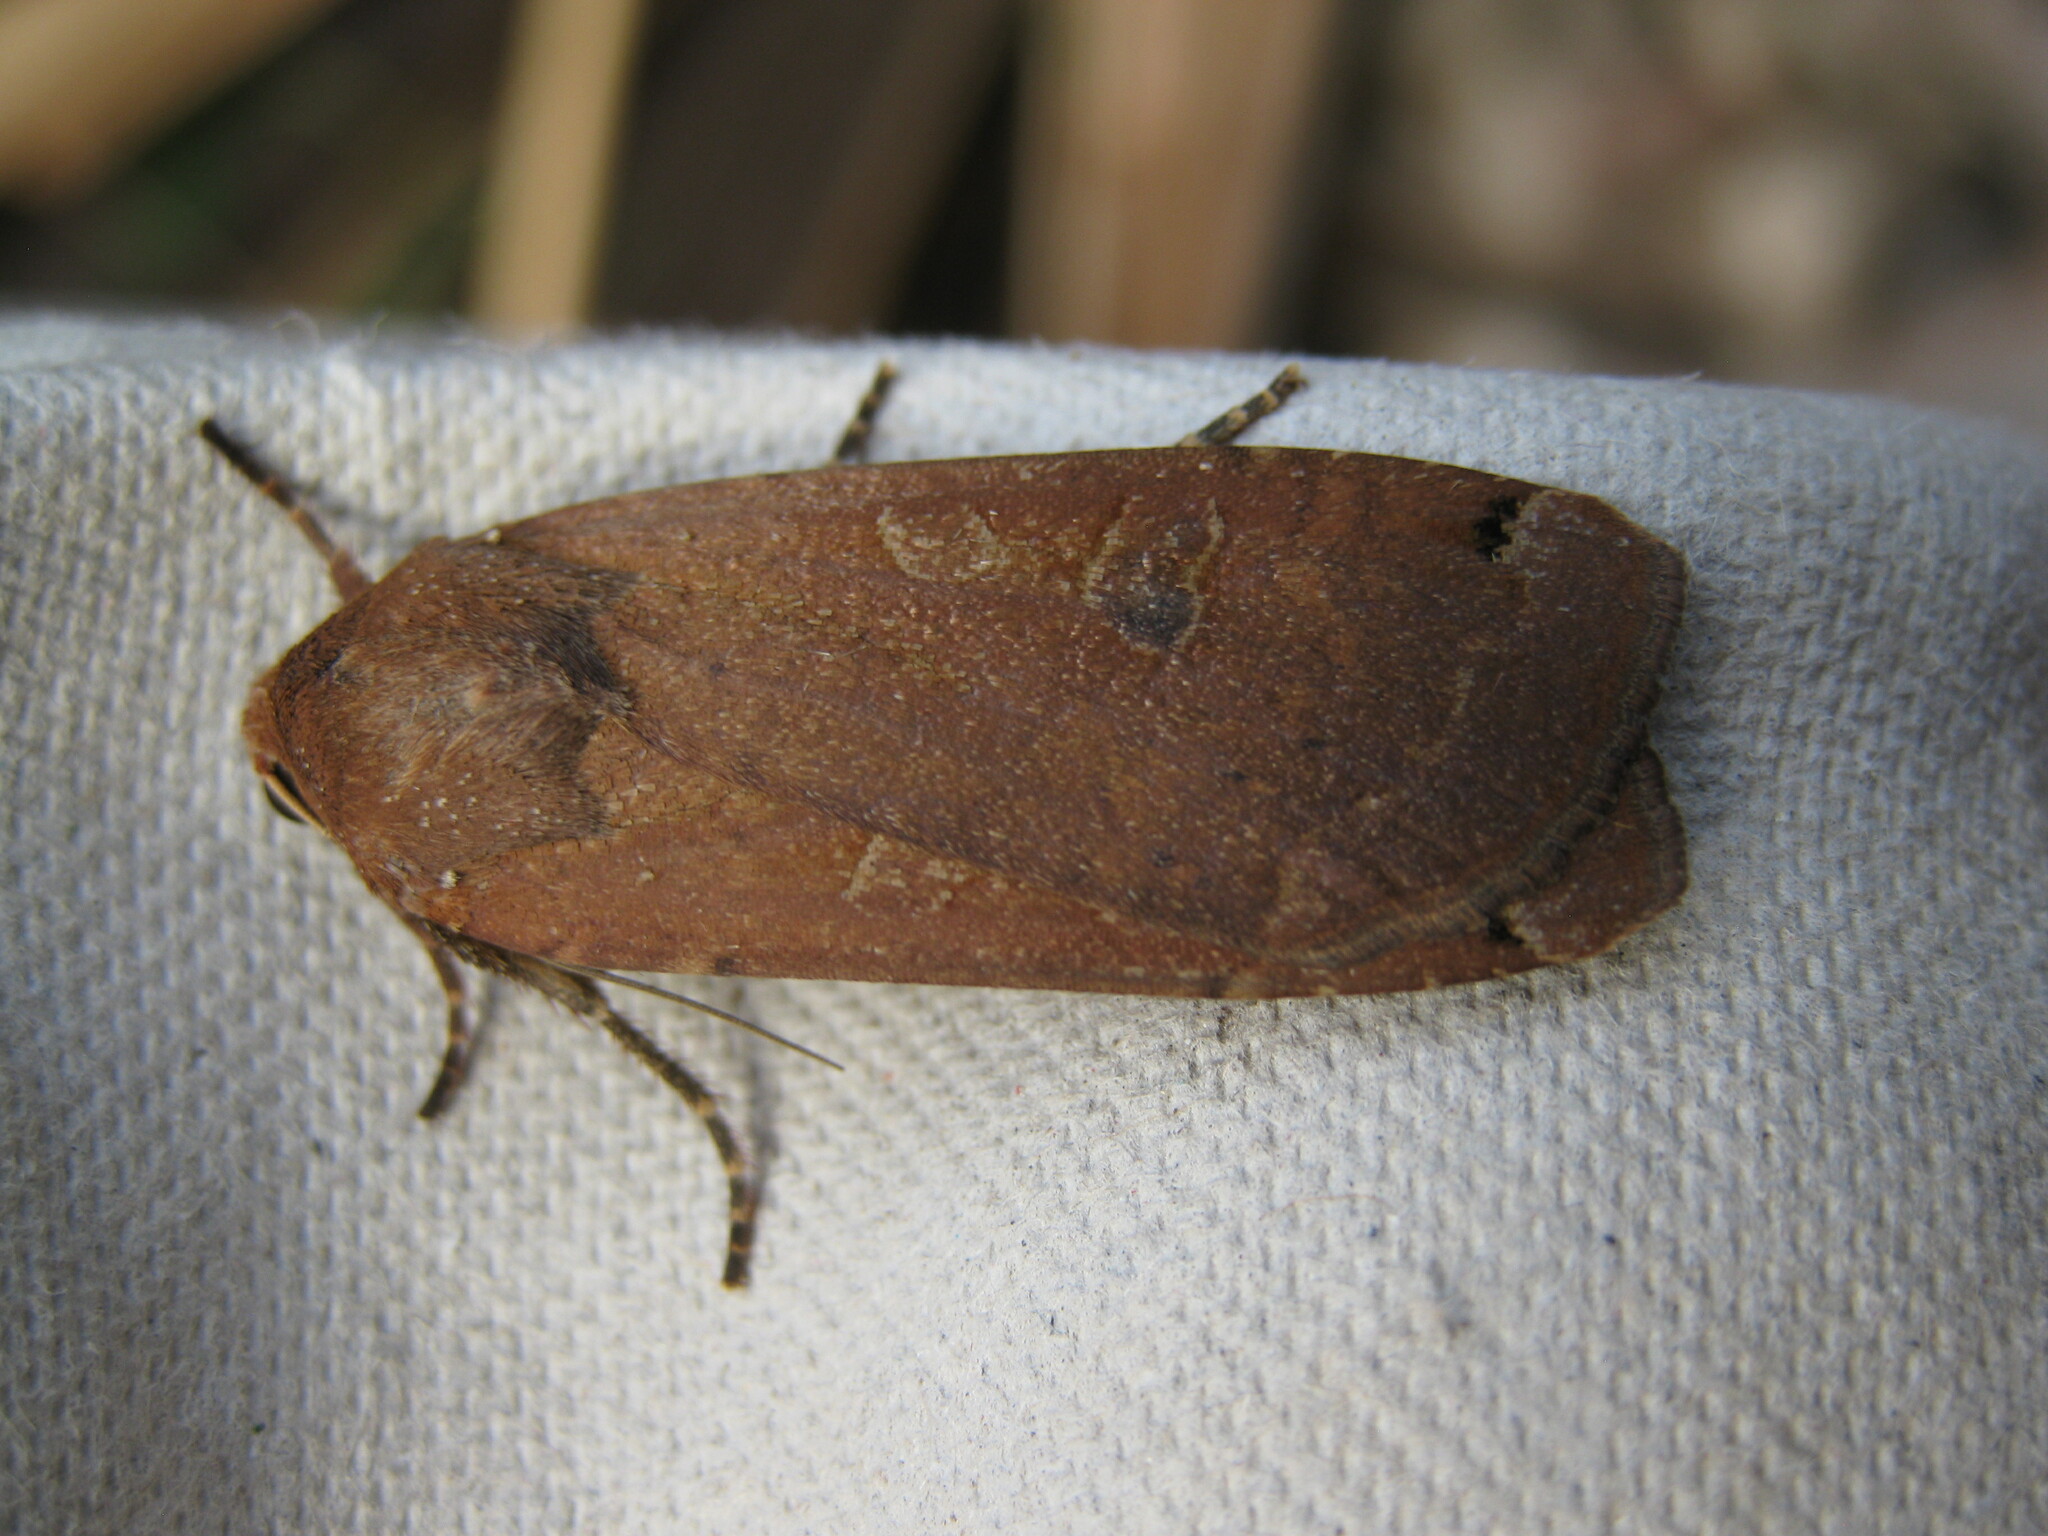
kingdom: Animalia
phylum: Arthropoda
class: Insecta
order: Lepidoptera
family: Noctuidae
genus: Noctua
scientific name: Noctua pronuba
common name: Large yellow underwing
